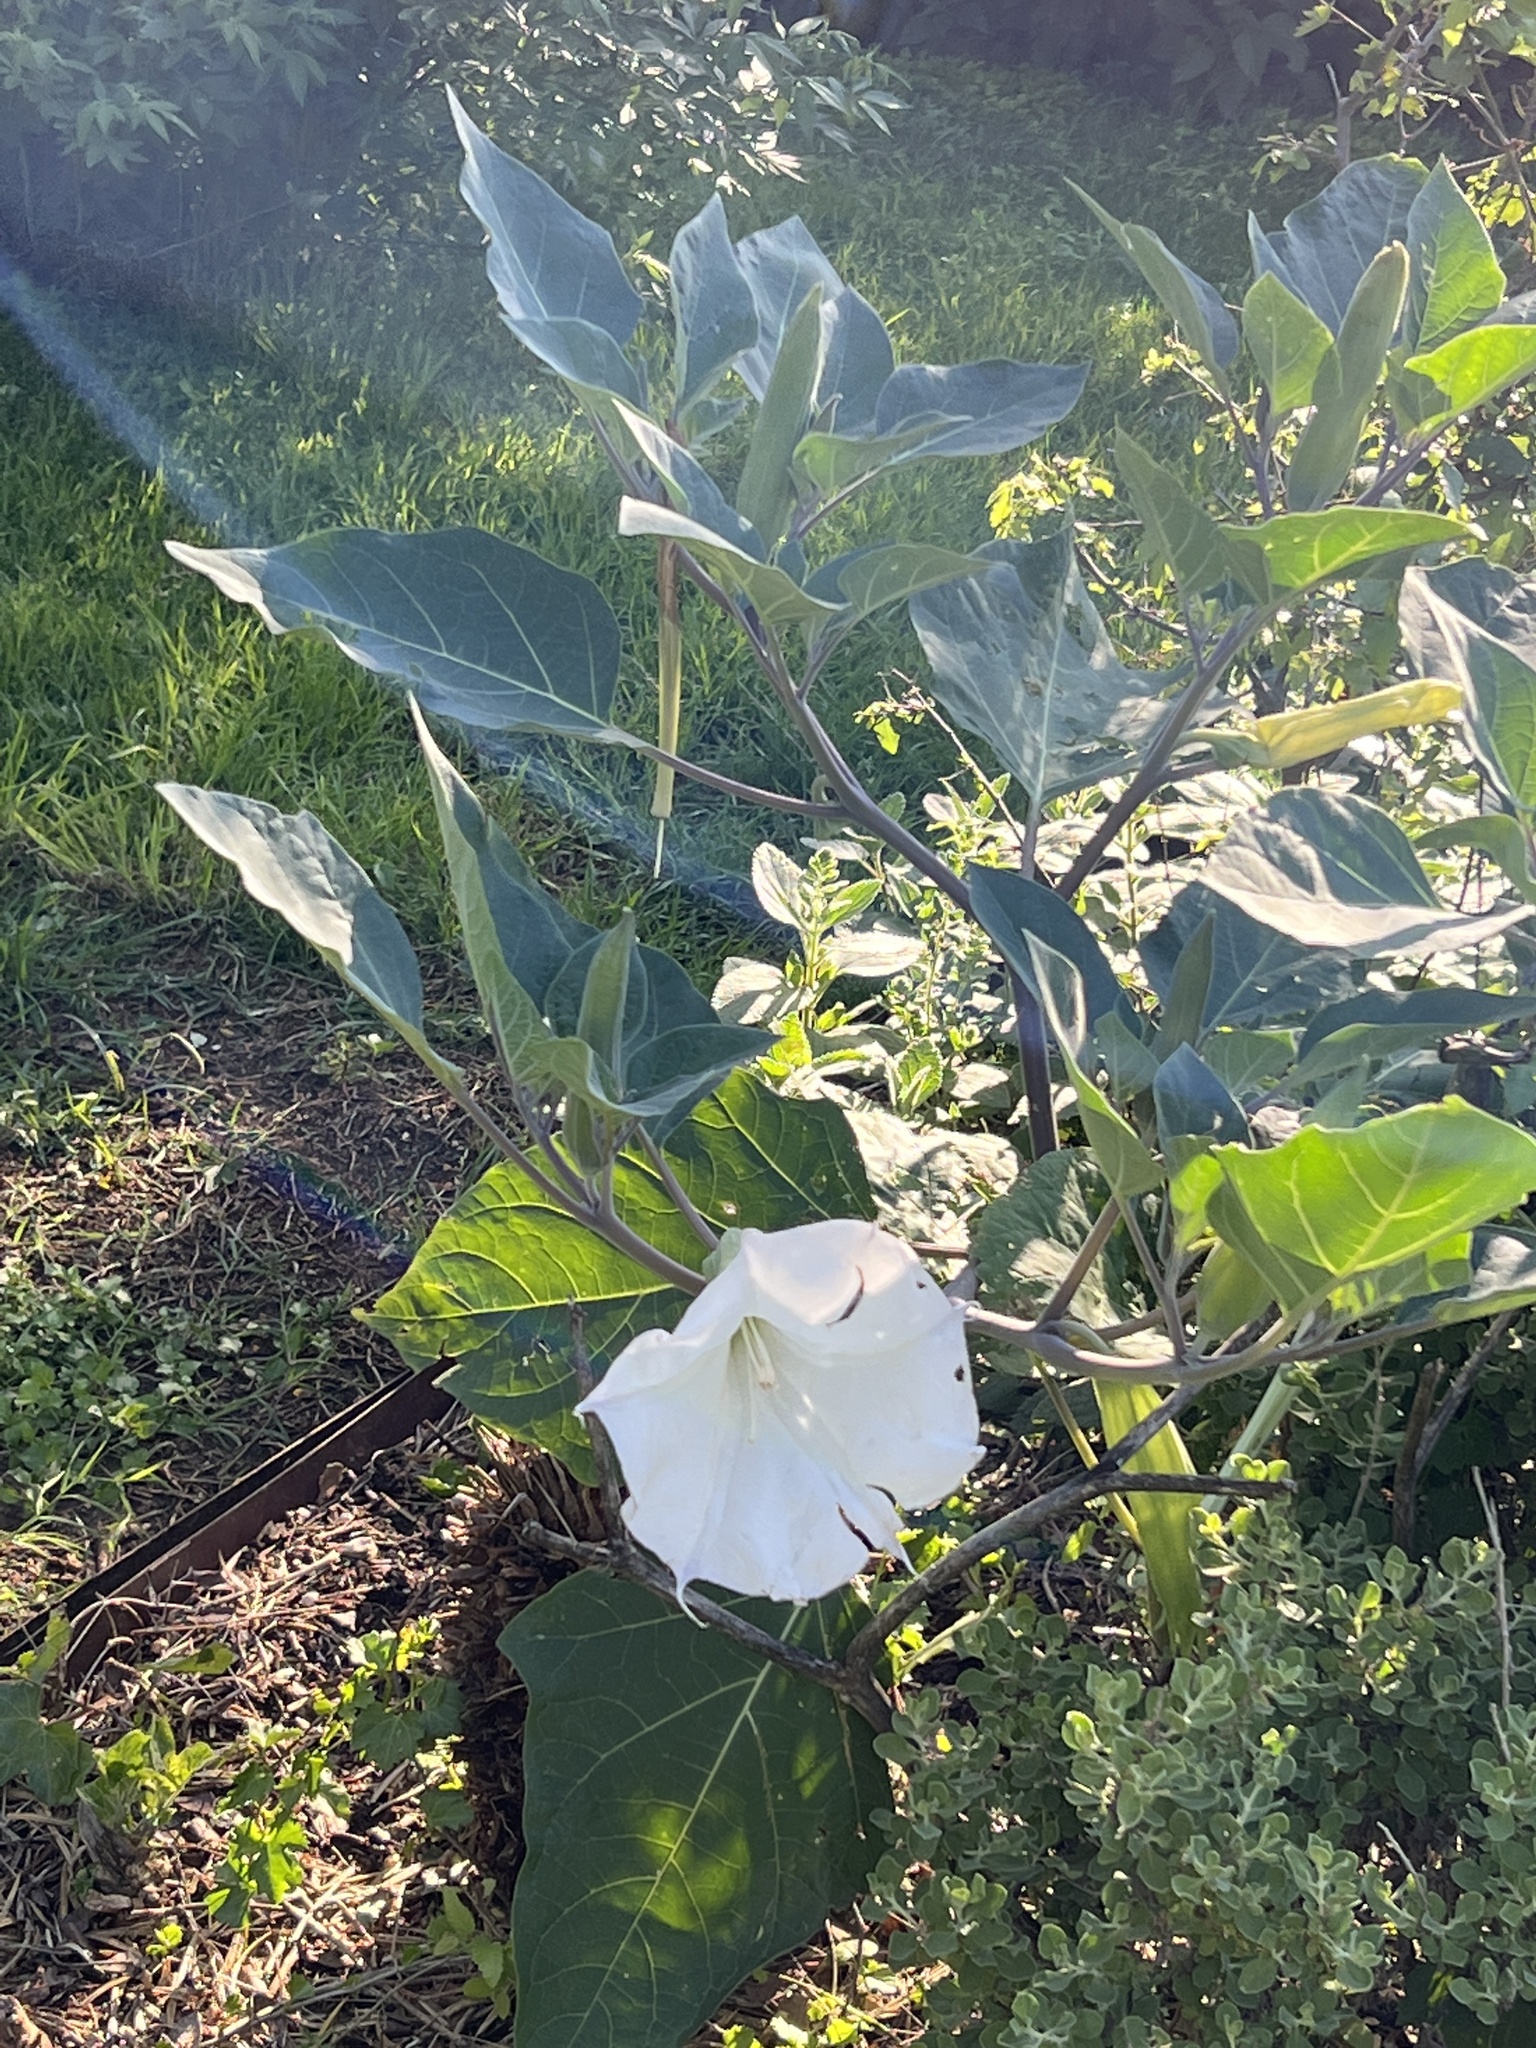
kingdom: Plantae
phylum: Tracheophyta
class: Magnoliopsida
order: Solanales
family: Solanaceae
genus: Datura
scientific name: Datura wrightii
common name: Sacred thorn-apple
